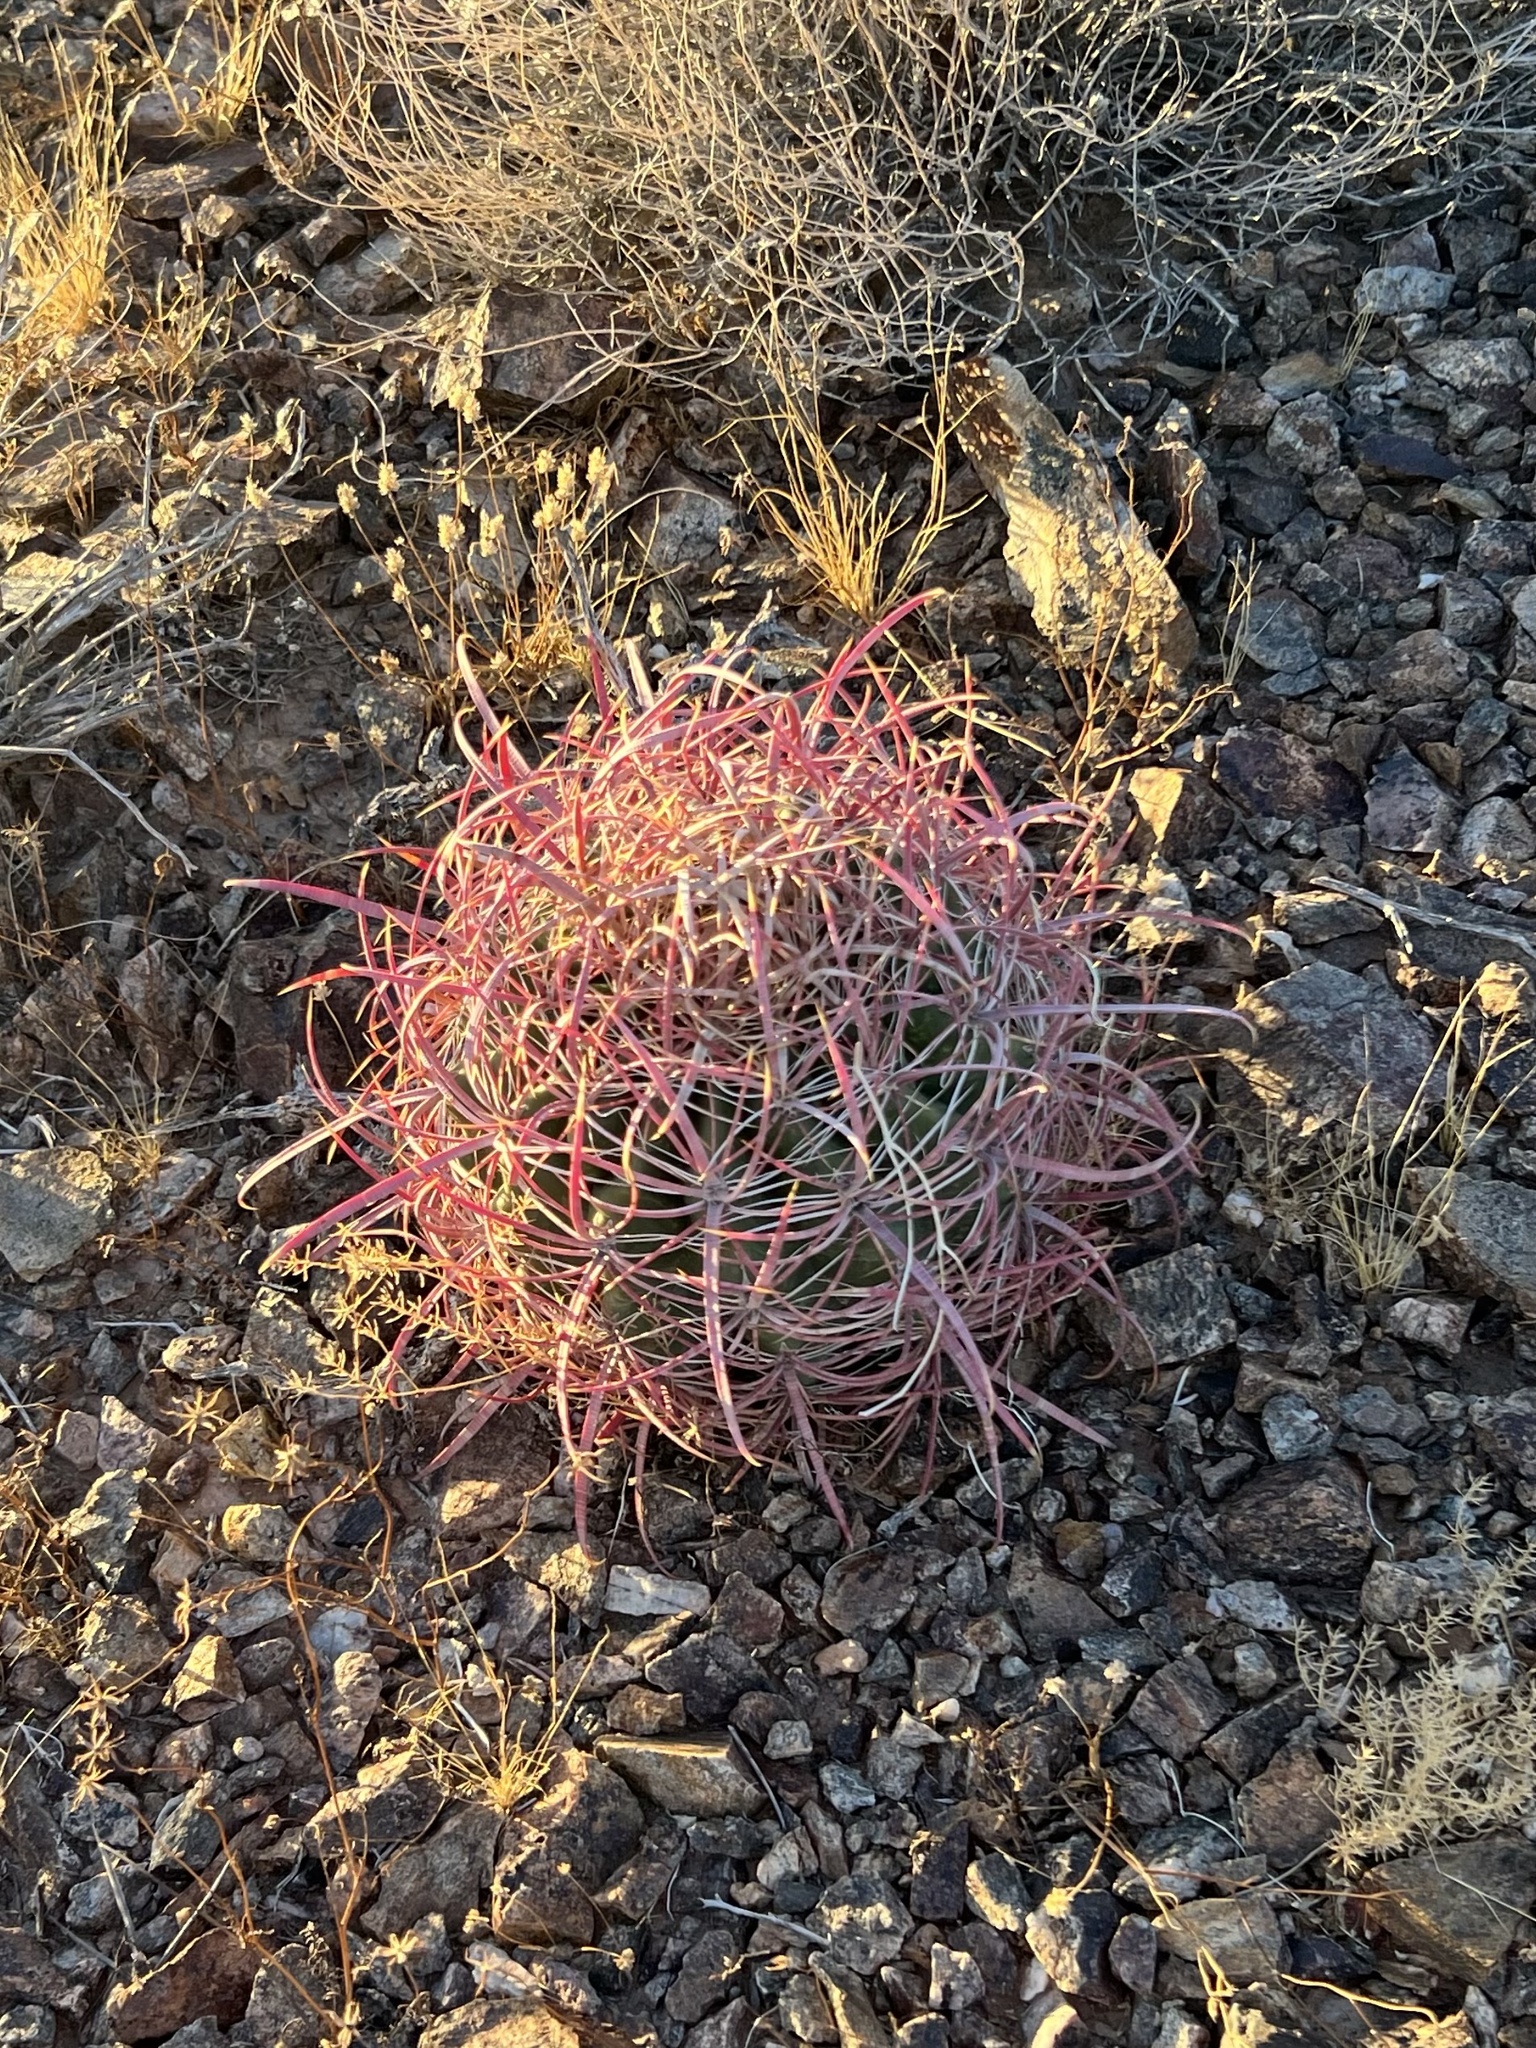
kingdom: Plantae
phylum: Tracheophyta
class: Magnoliopsida
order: Caryophyllales
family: Cactaceae
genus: Ferocactus
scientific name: Ferocactus cylindraceus
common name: California barrel cactus
